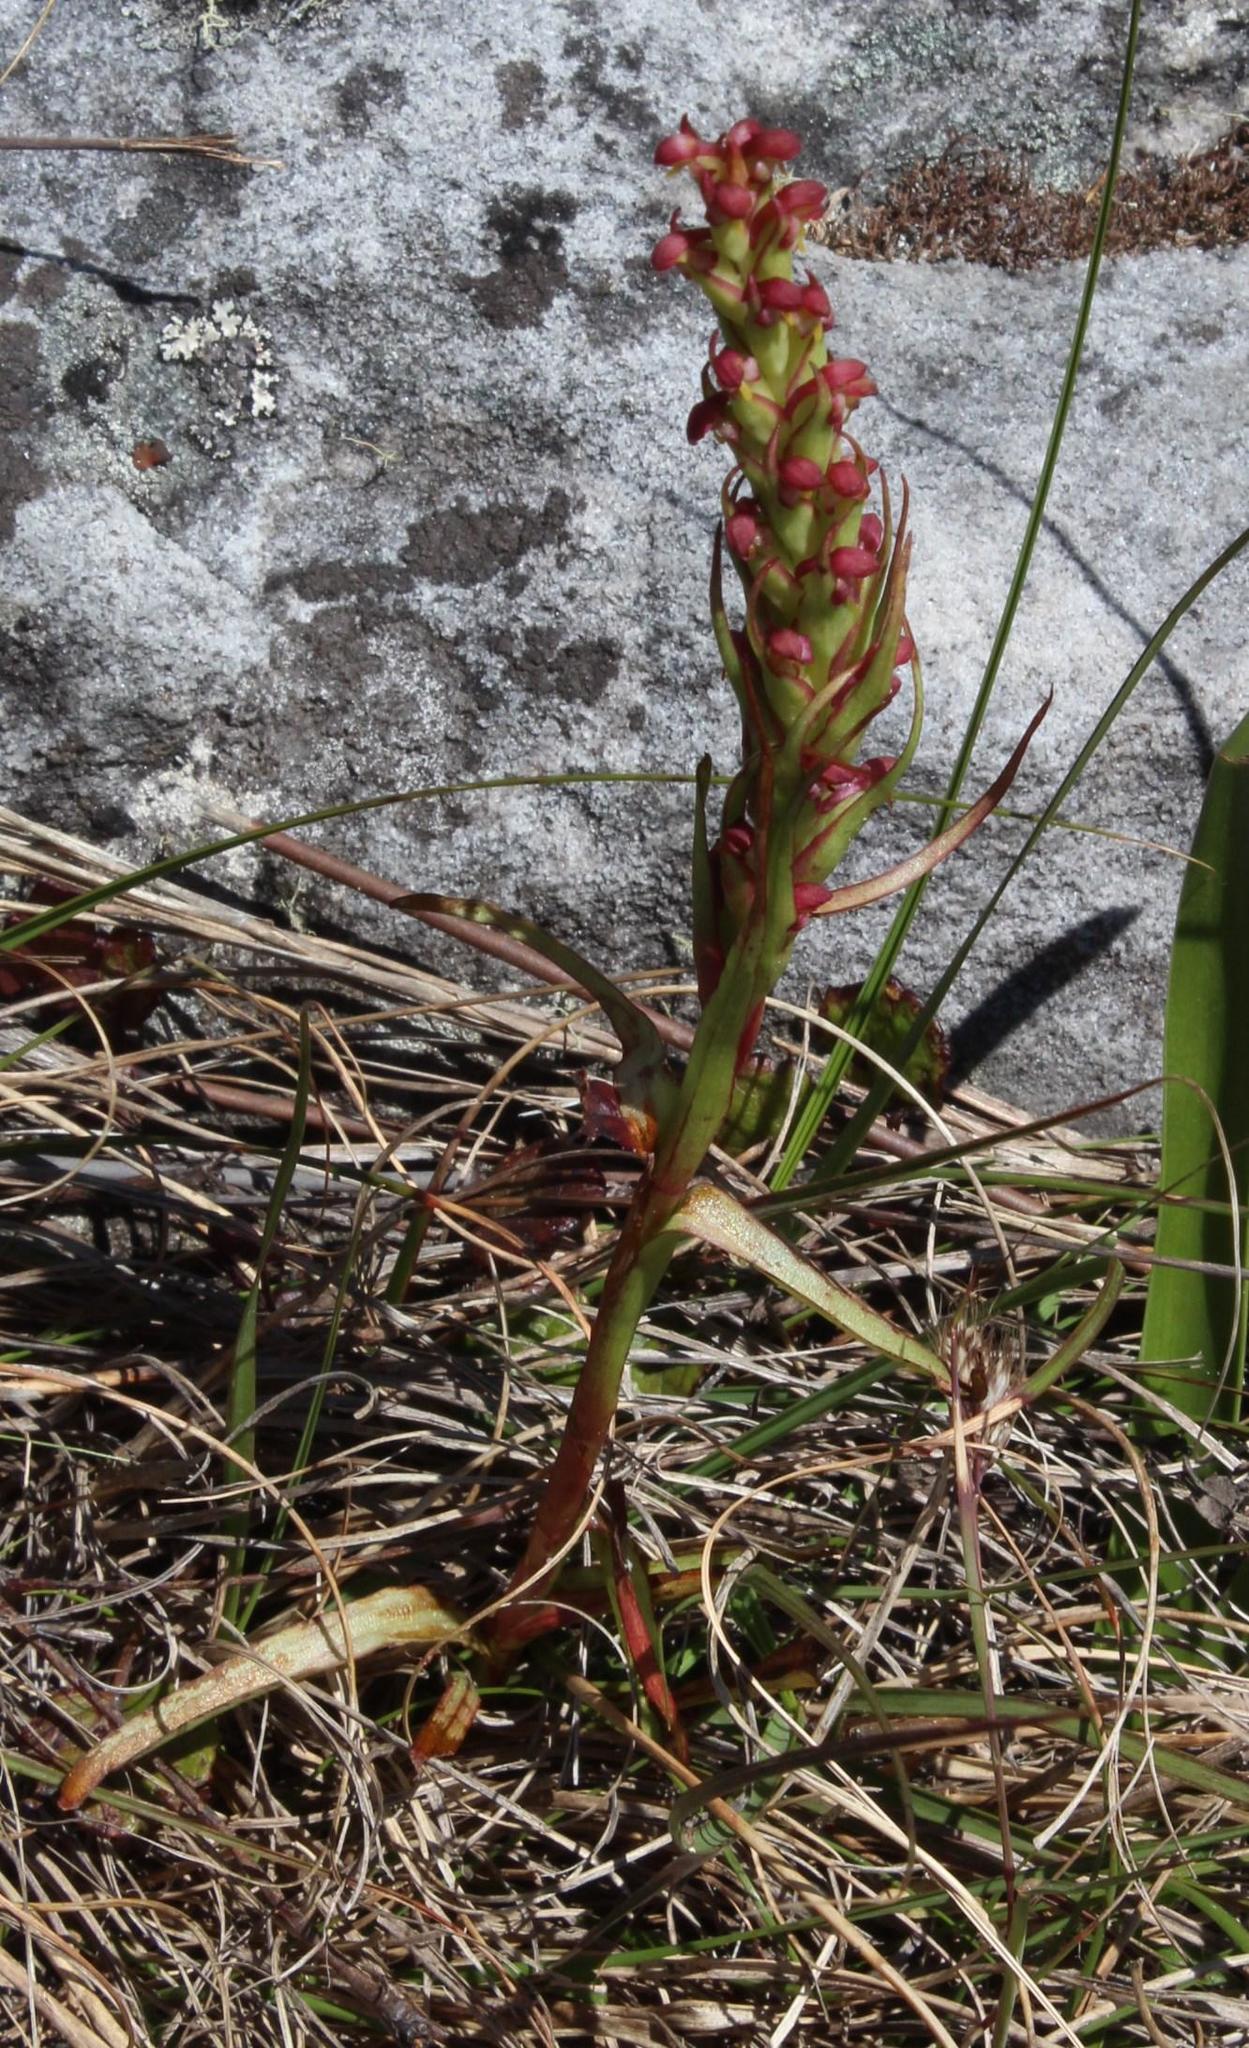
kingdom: Plantae
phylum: Tracheophyta
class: Liliopsida
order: Asparagales
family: Orchidaceae
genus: Disa
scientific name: Disa bracteata
